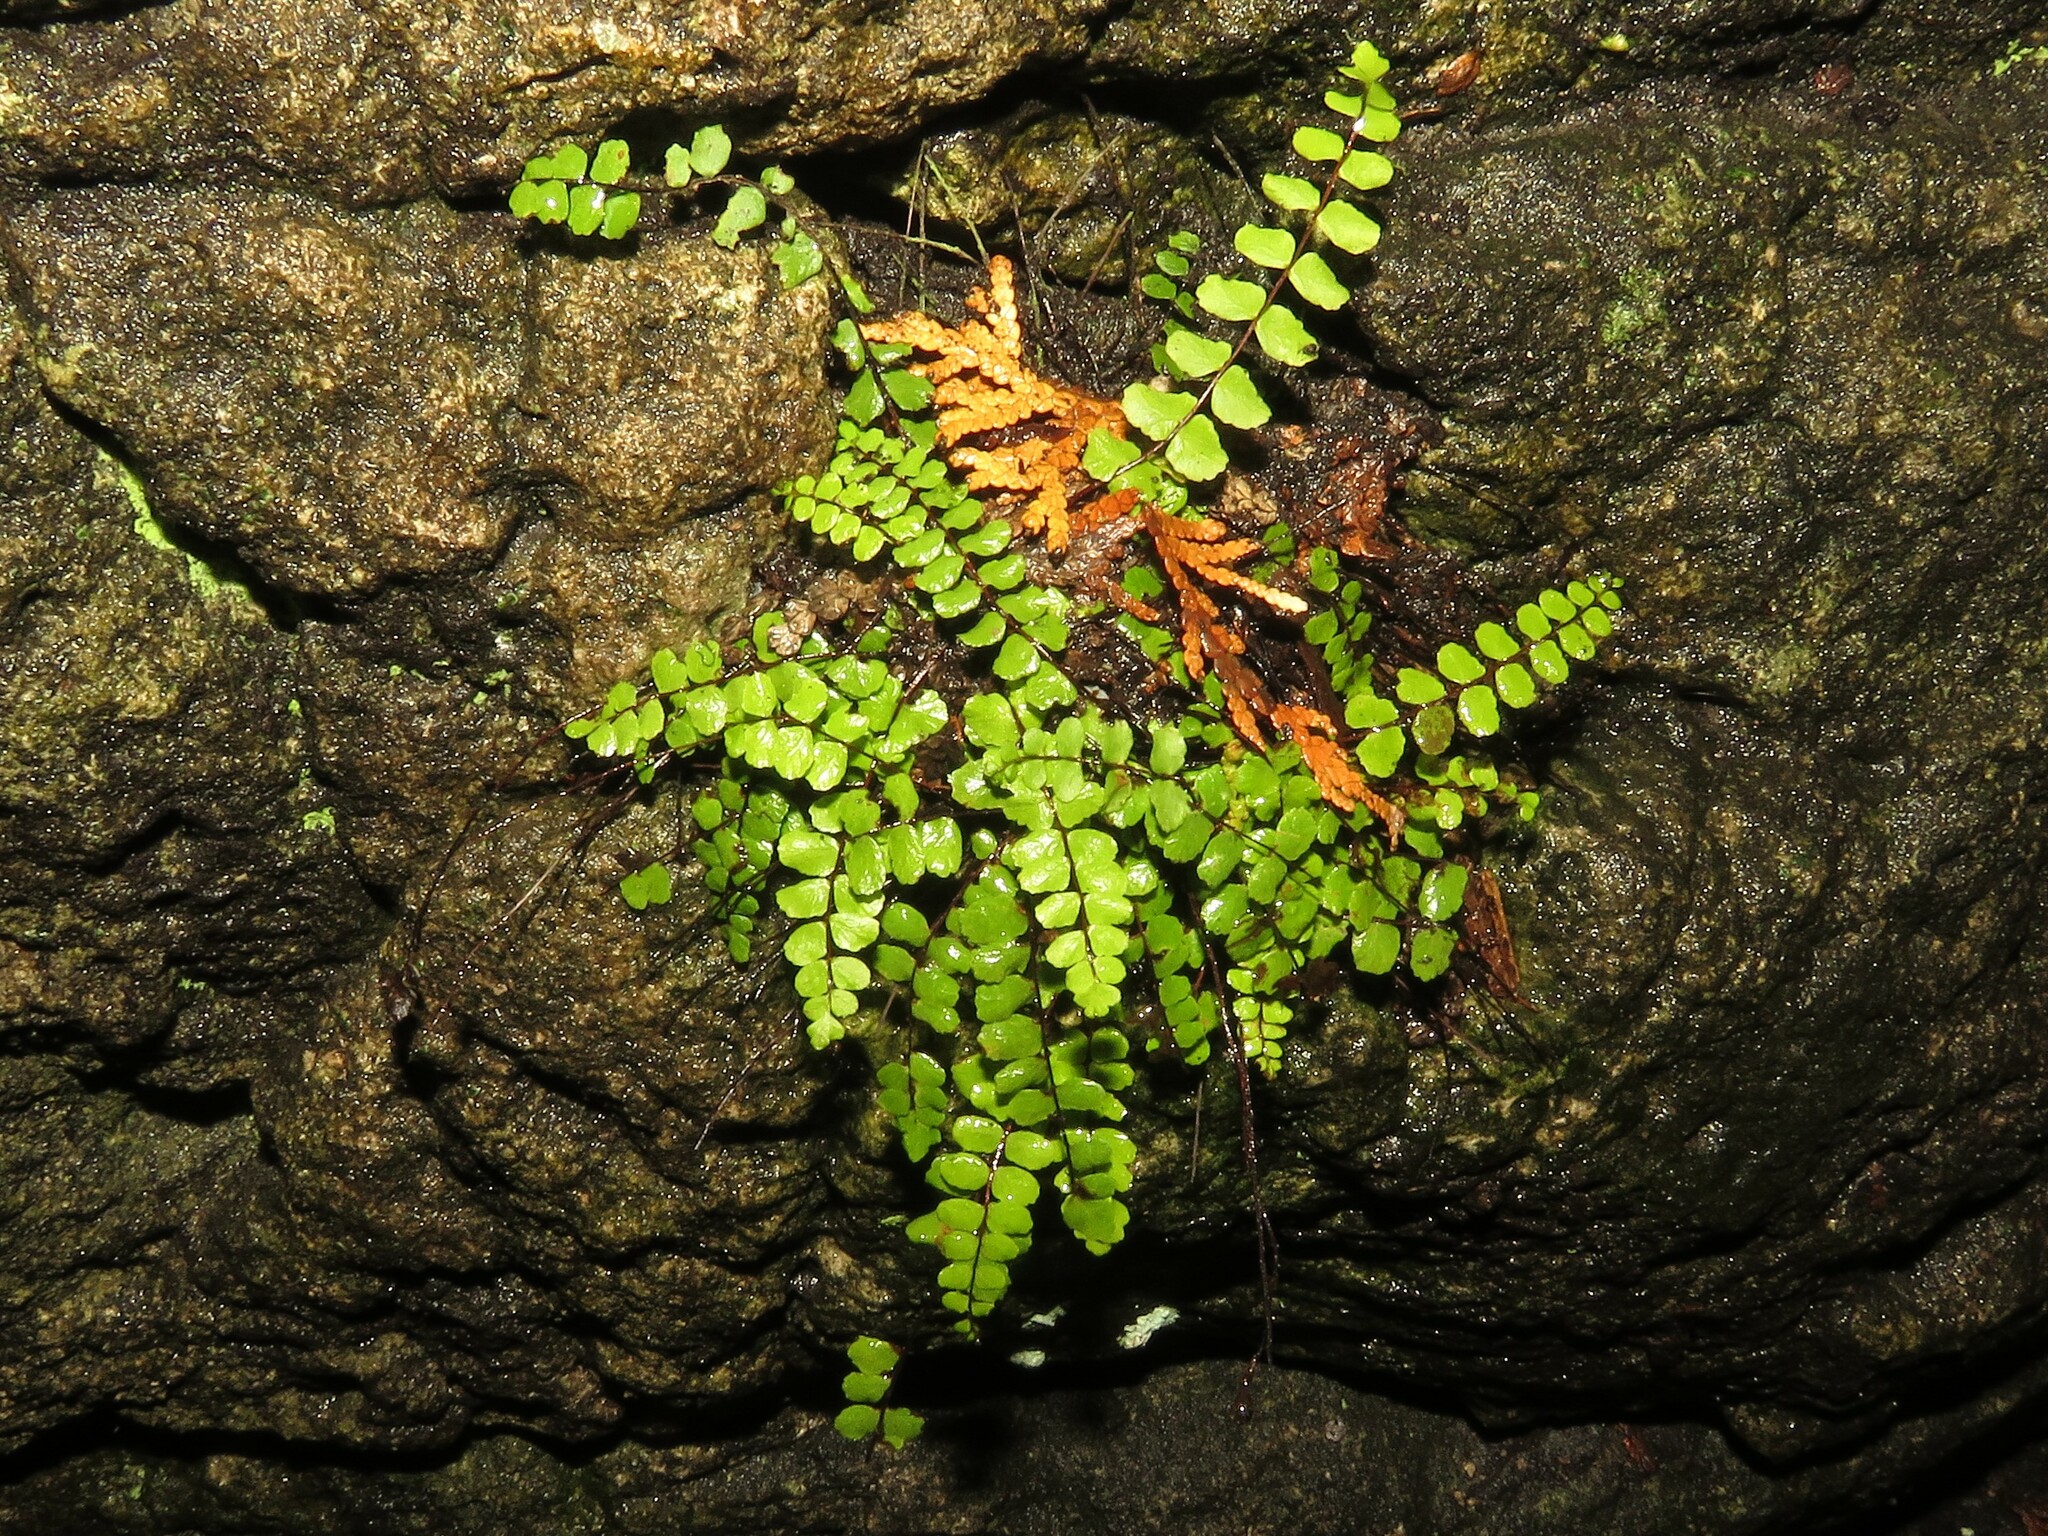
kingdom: Plantae
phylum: Tracheophyta
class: Polypodiopsida
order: Polypodiales
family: Aspleniaceae
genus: Asplenium
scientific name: Asplenium trichomanes
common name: Maidenhair spleenwort
